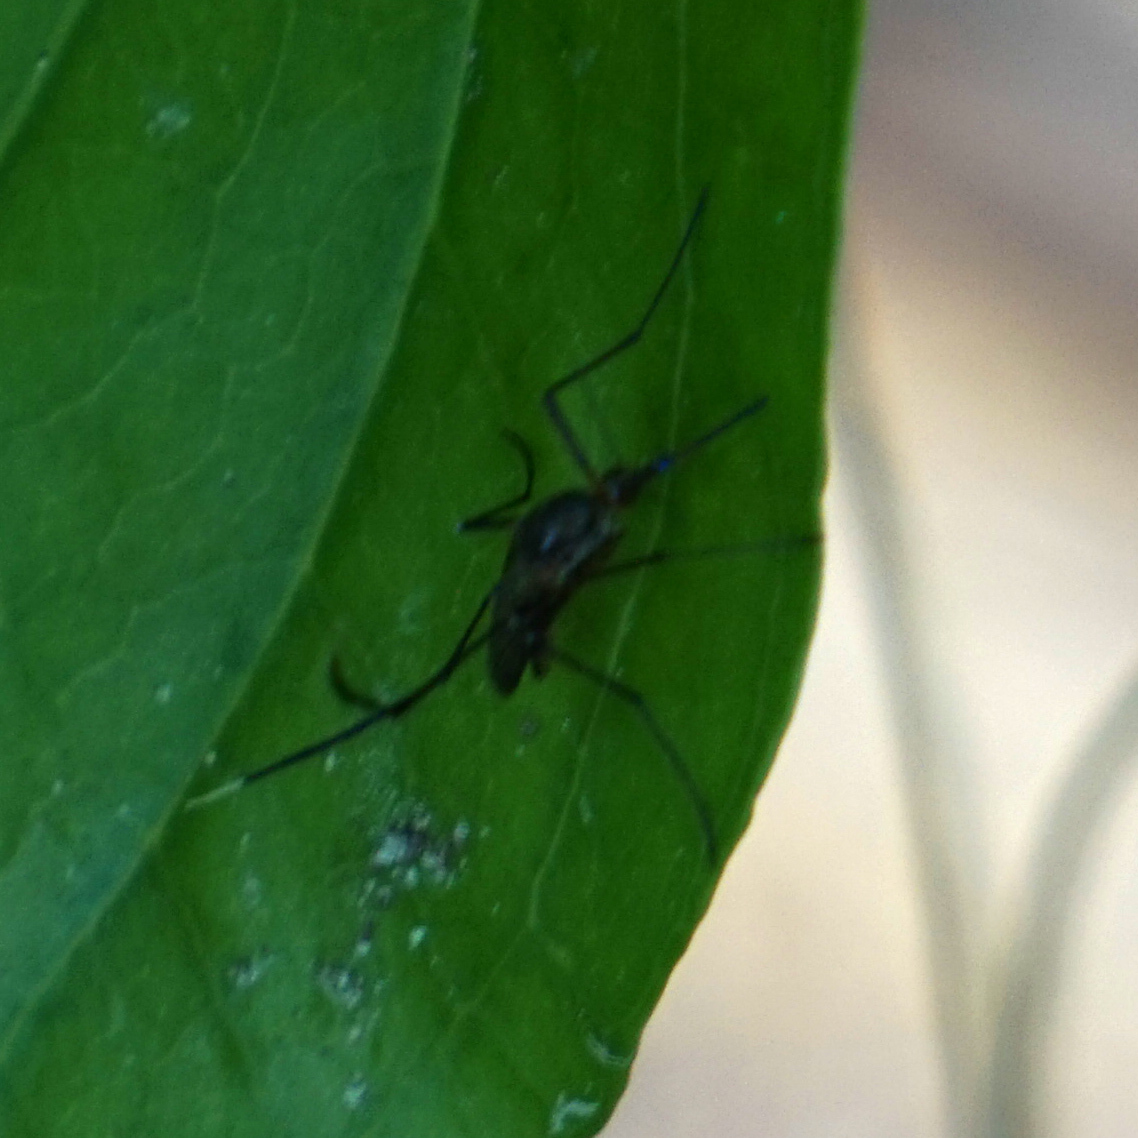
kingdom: Animalia
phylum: Arthropoda
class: Insecta
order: Diptera
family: Culicidae
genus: Psorophora
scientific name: Psorophora ferox
